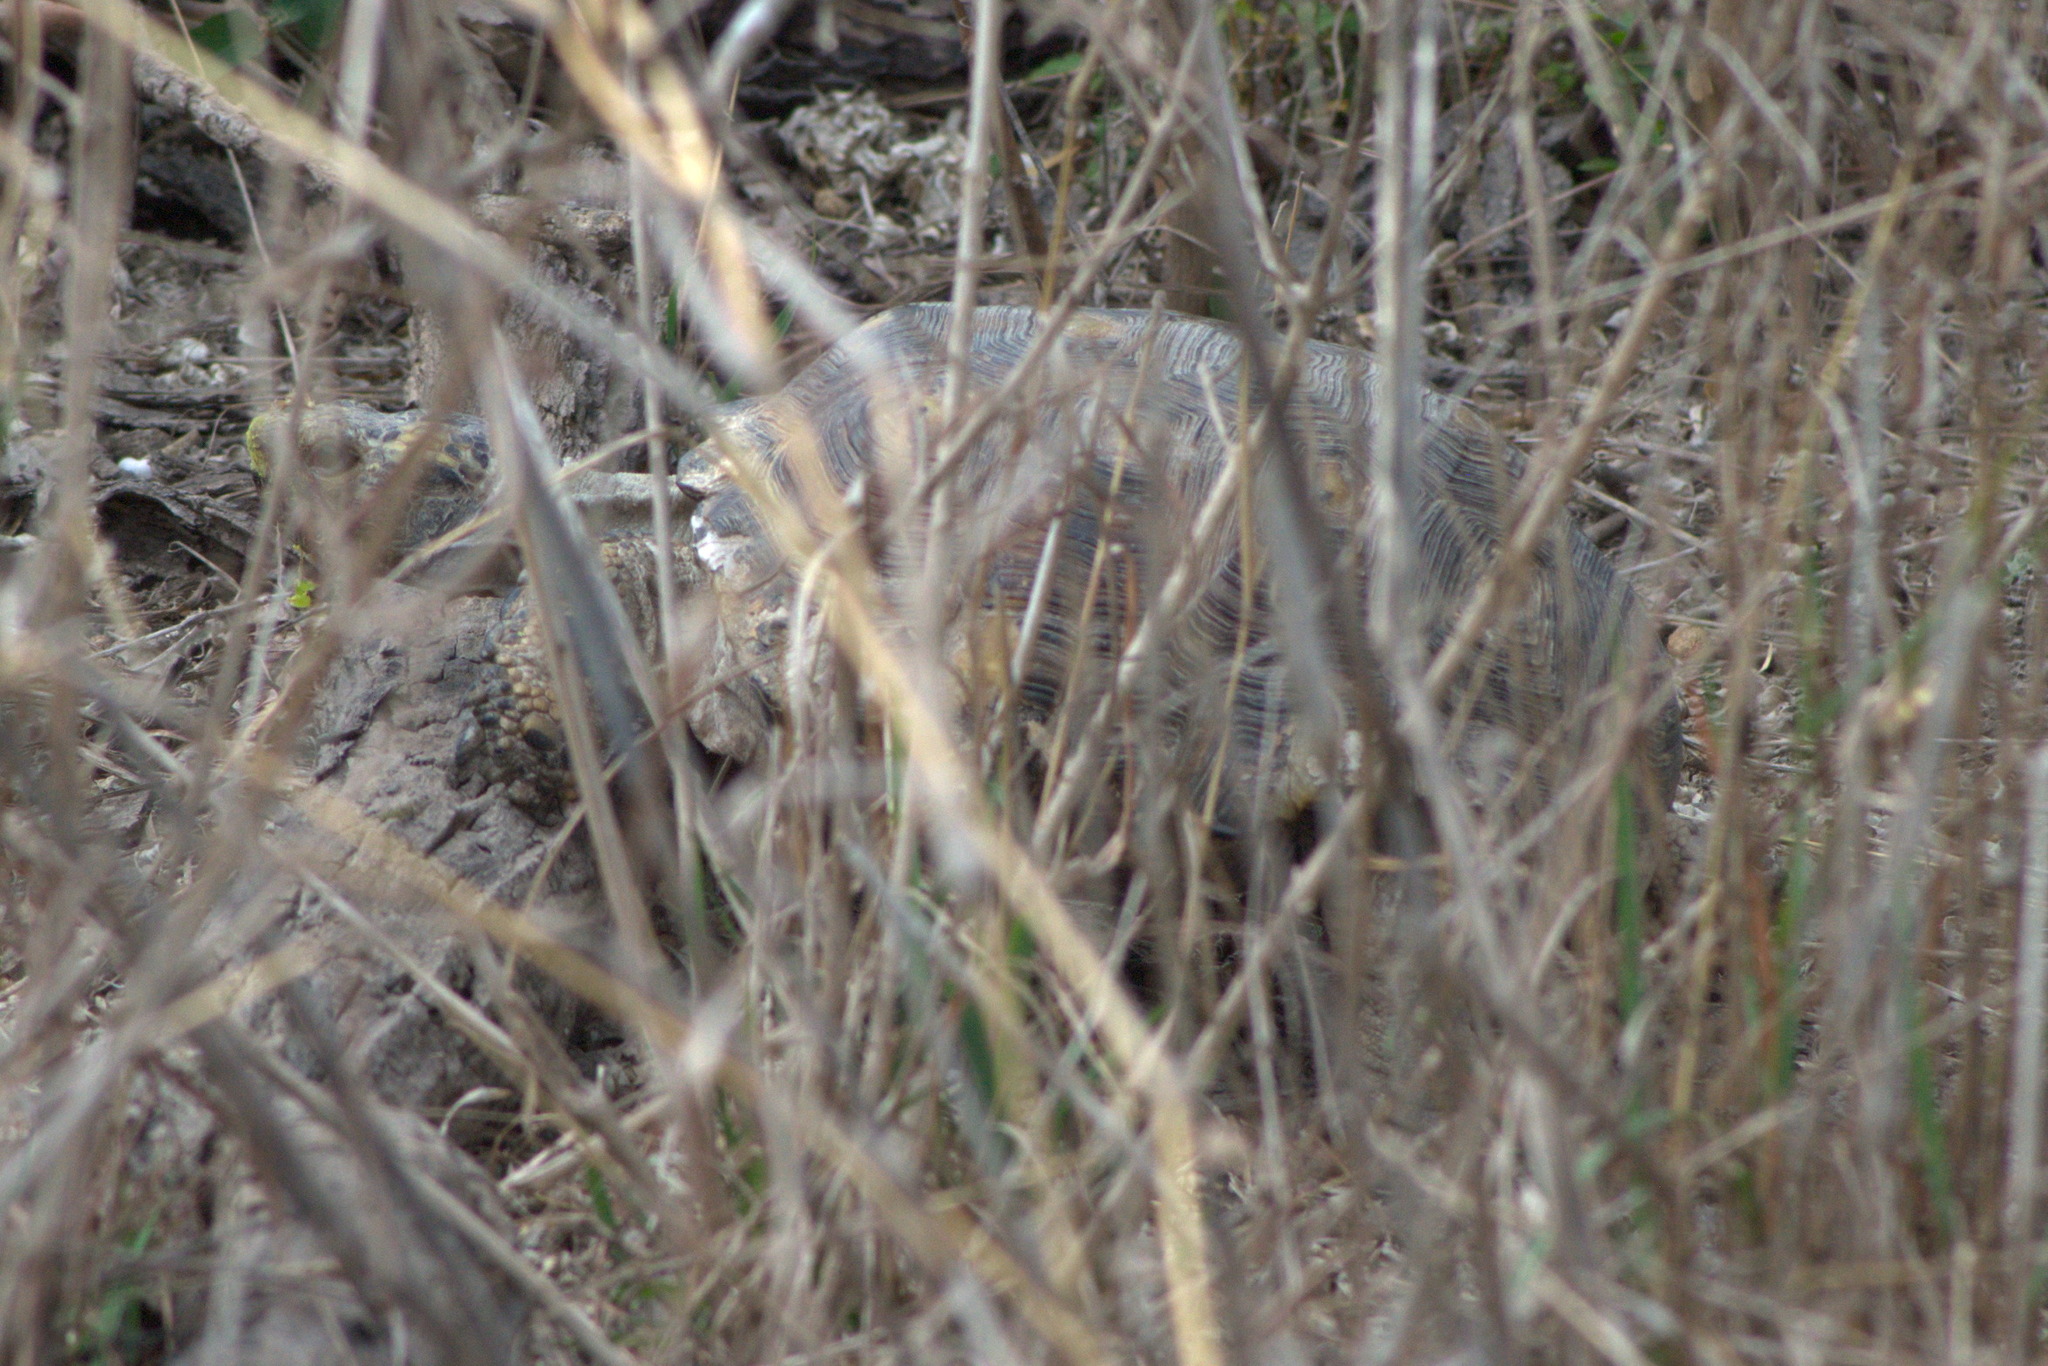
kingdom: Animalia
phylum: Chordata
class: Testudines
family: Testudinidae
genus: Gopherus
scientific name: Gopherus berlandieri
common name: Texas (gopher )tortoise
